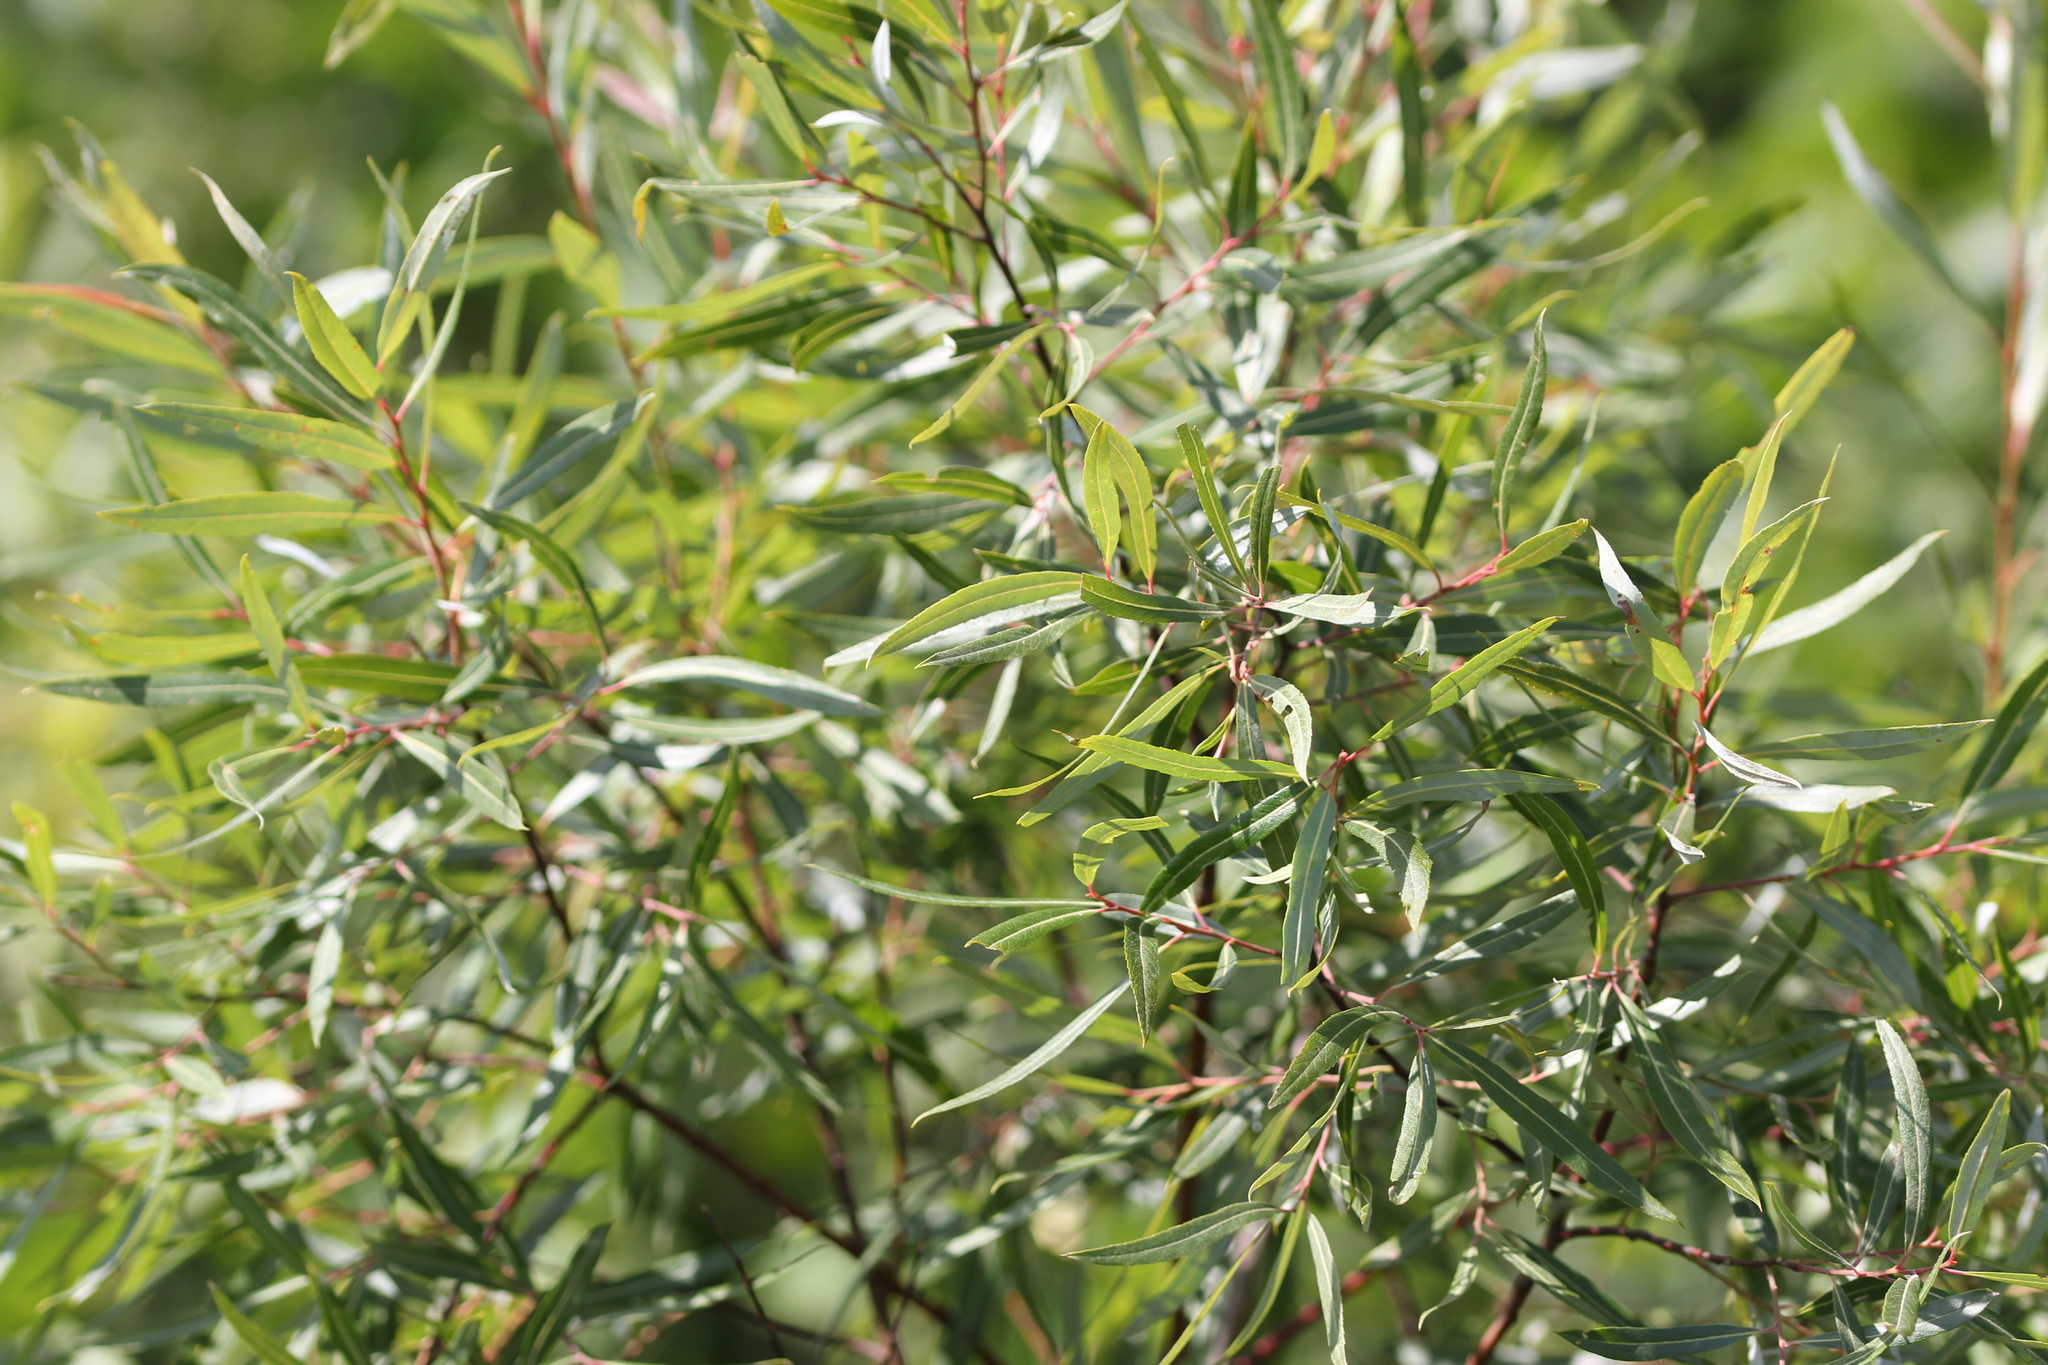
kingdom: Plantae
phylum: Tracheophyta
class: Magnoliopsida
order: Malpighiales
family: Salicaceae
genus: Salix
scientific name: Salix petiolaris
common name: Slender willow
